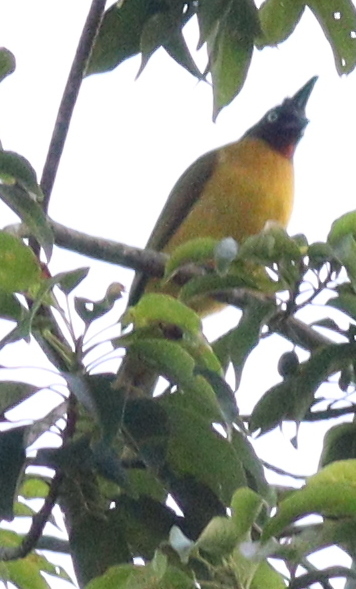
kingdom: Animalia
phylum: Chordata
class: Aves
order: Passeriformes
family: Pycnonotidae
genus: Pycnonotus
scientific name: Pycnonotus flaviventris
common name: Black-crested bulbul
